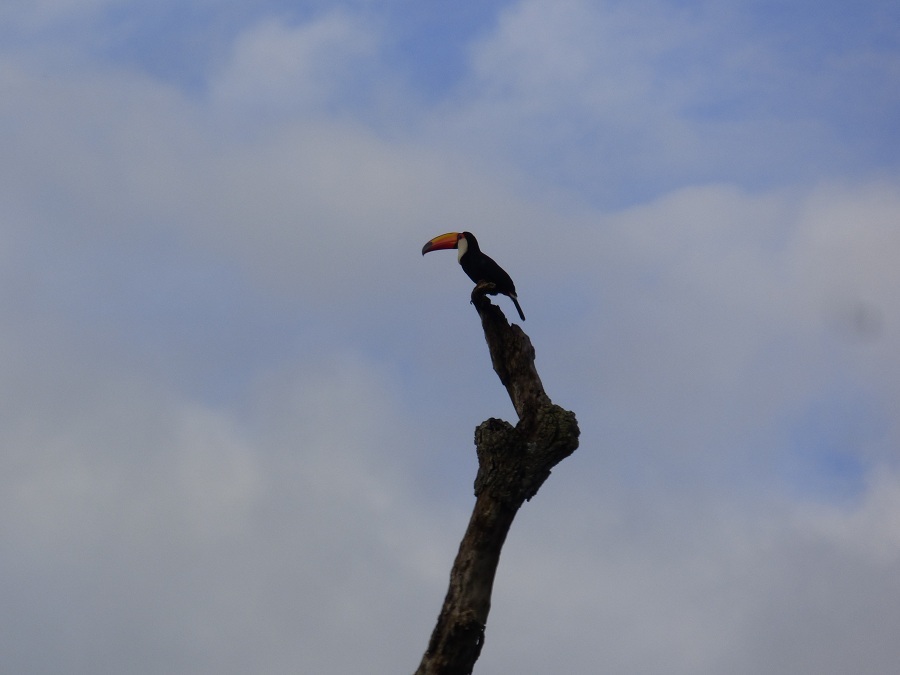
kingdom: Animalia
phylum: Chordata
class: Aves
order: Piciformes
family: Ramphastidae
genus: Ramphastos
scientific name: Ramphastos toco
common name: Toco toucan
